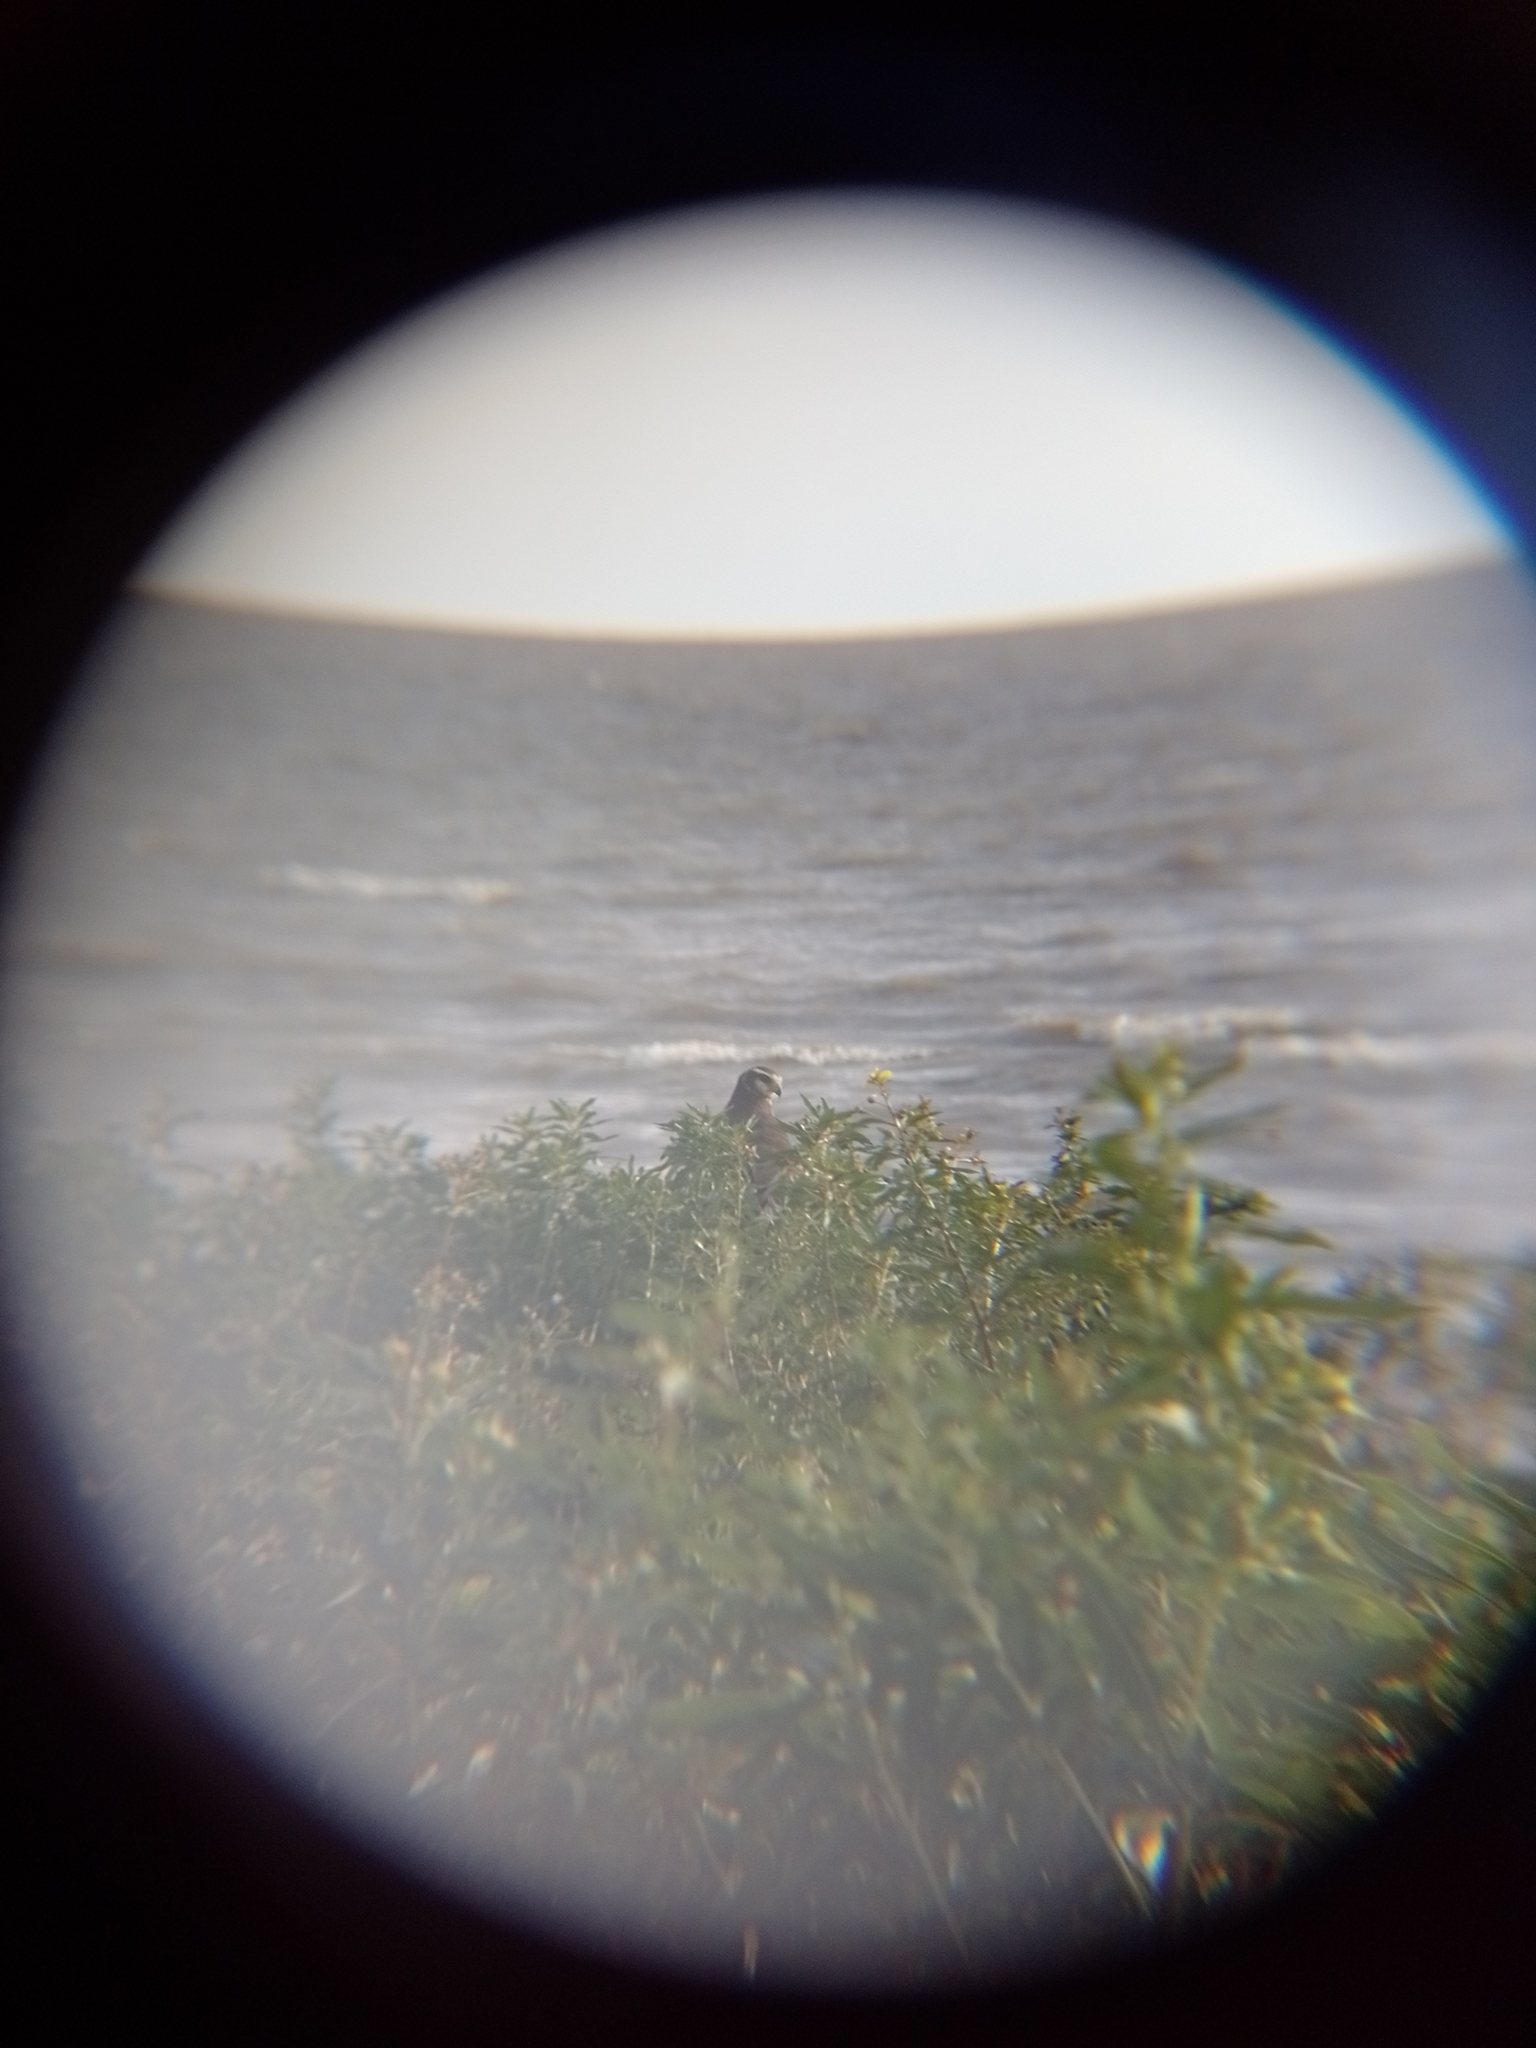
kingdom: Animalia
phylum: Chordata
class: Aves
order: Accipitriformes
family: Accipitridae
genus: Circus
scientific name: Circus buffoni
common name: Long-winged harrier
